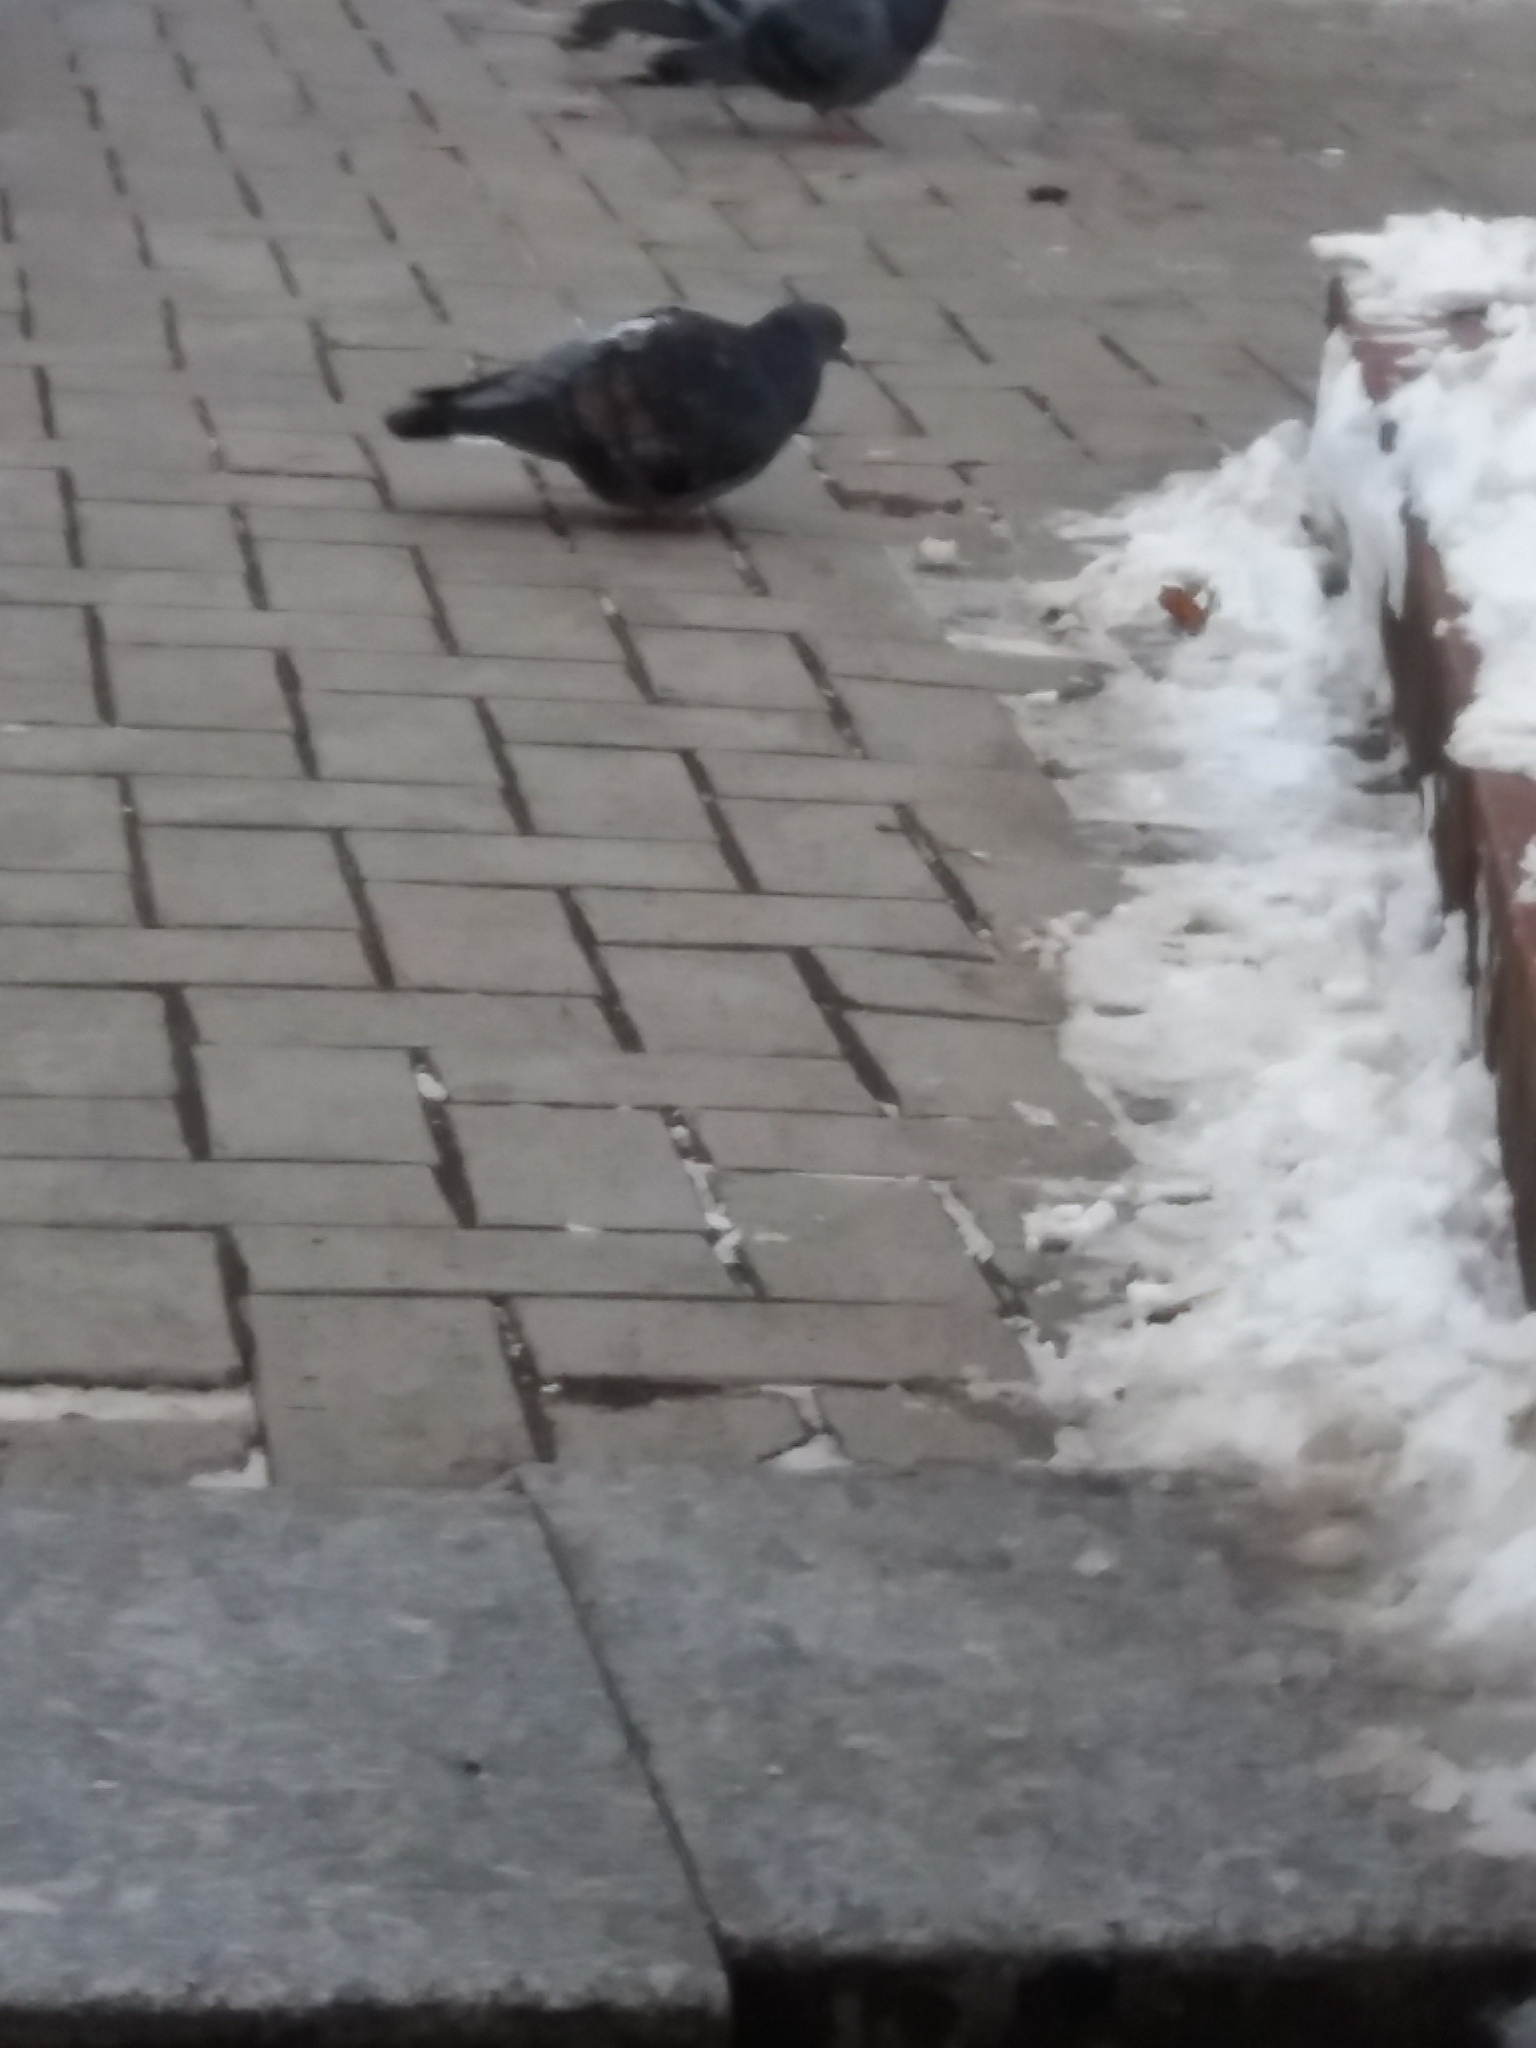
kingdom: Animalia
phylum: Chordata
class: Aves
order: Columbiformes
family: Columbidae
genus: Columba
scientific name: Columba livia
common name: Rock pigeon
